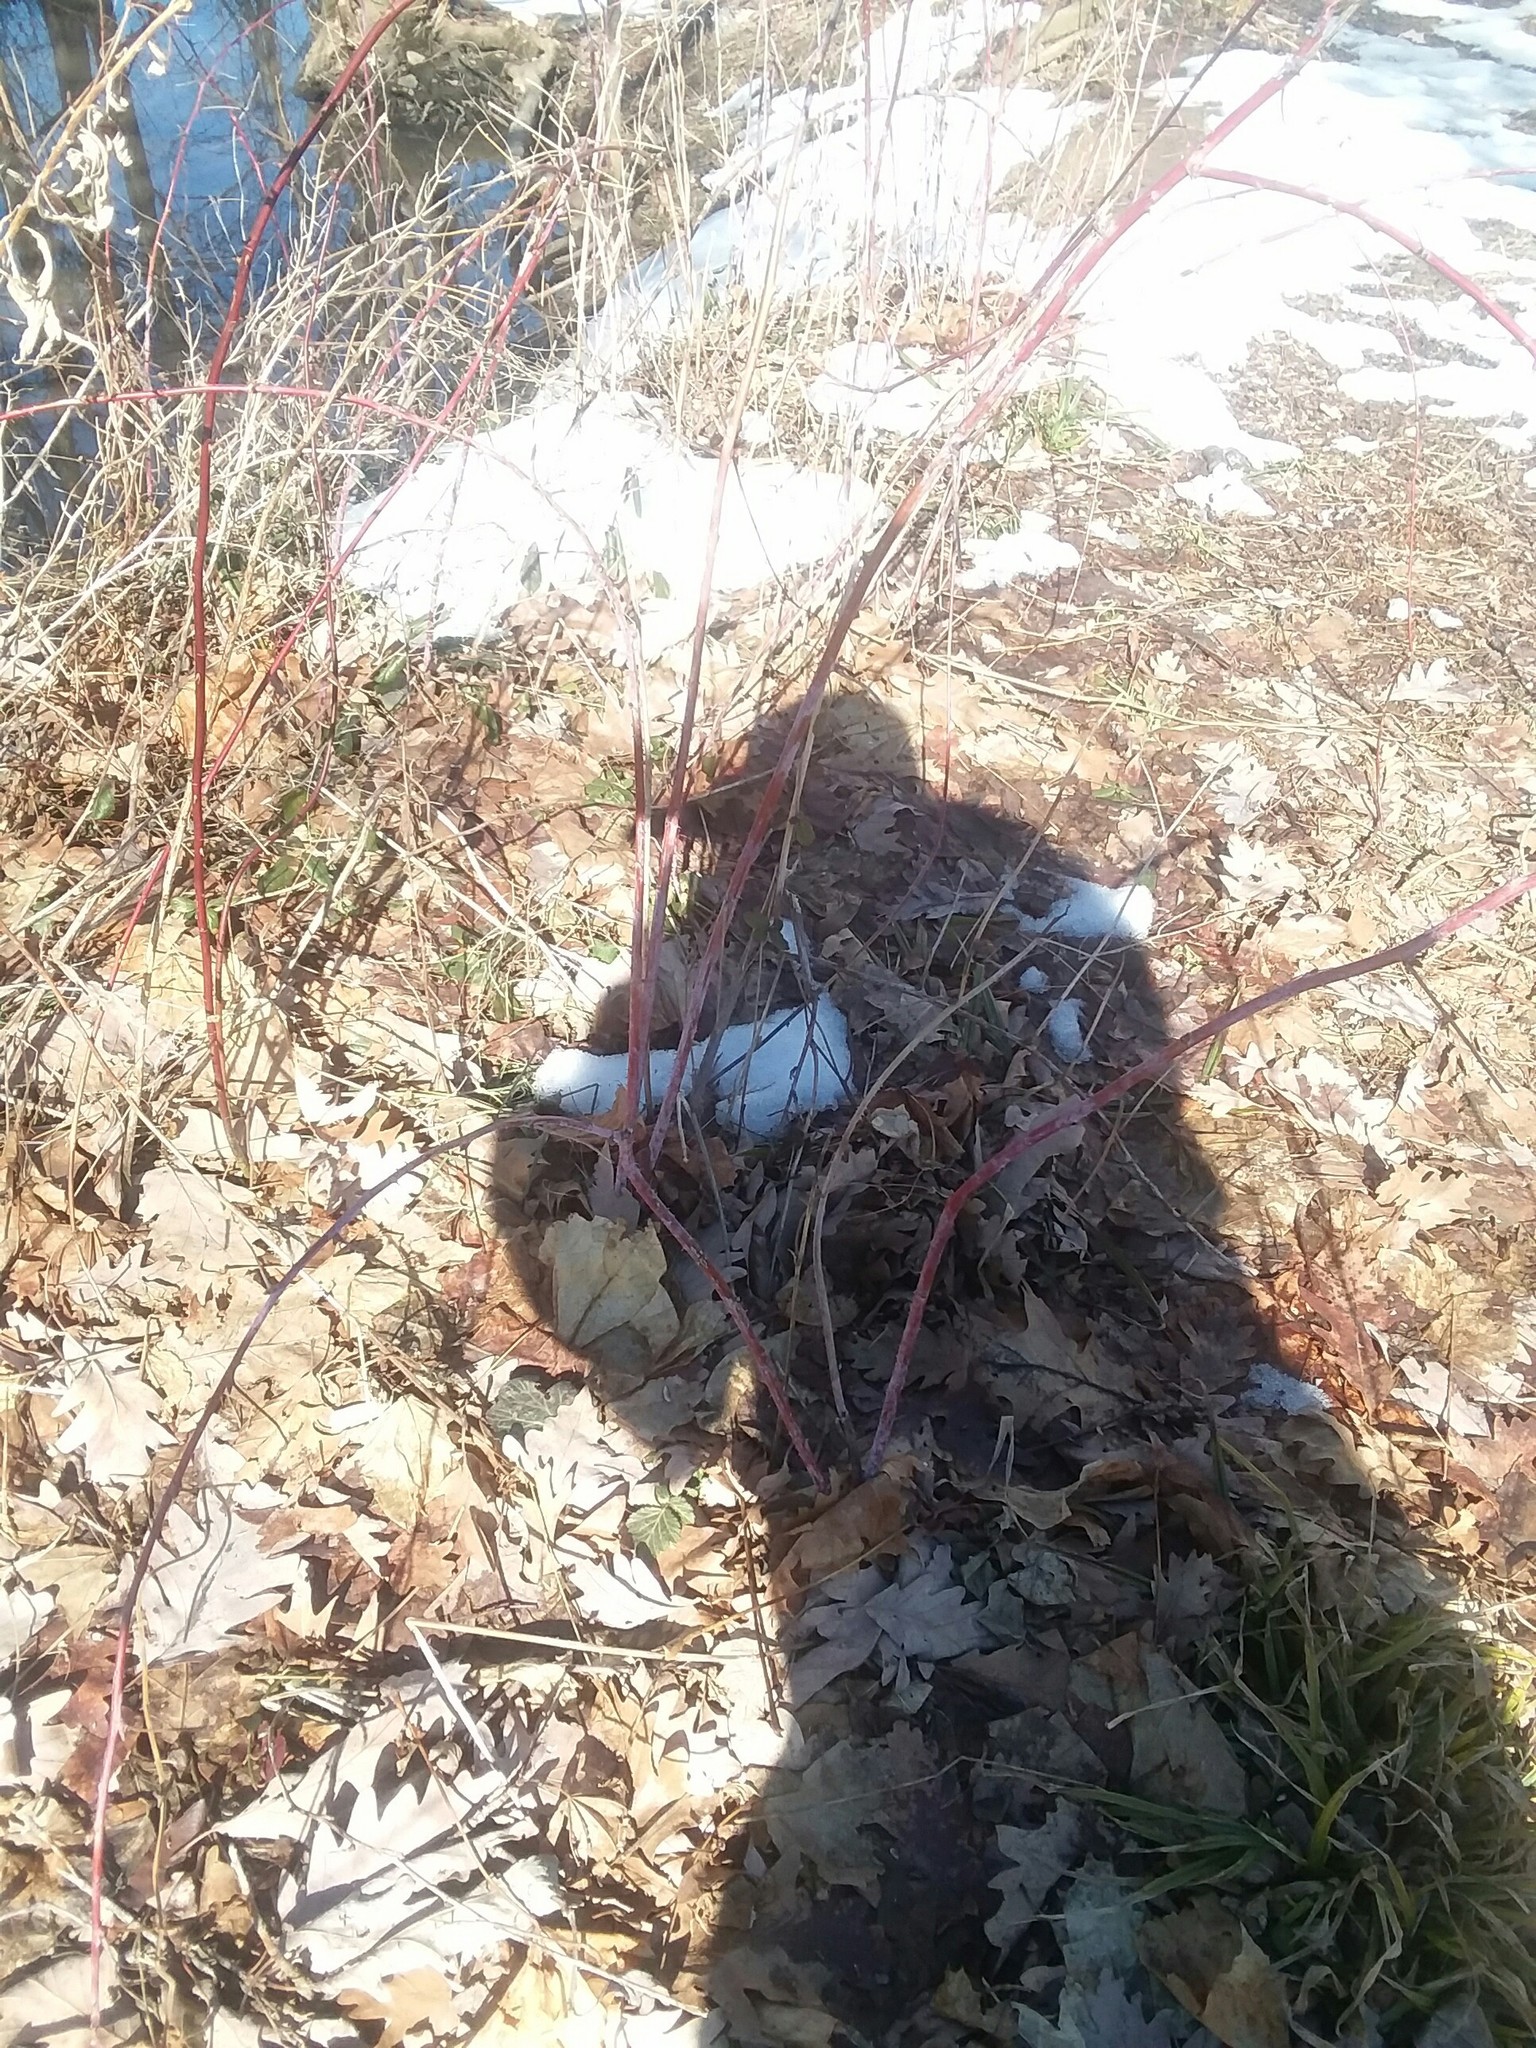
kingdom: Plantae
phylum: Tracheophyta
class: Magnoliopsida
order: Rosales
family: Rosaceae
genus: Rubus
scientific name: Rubus occidentalis
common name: Black raspberry
